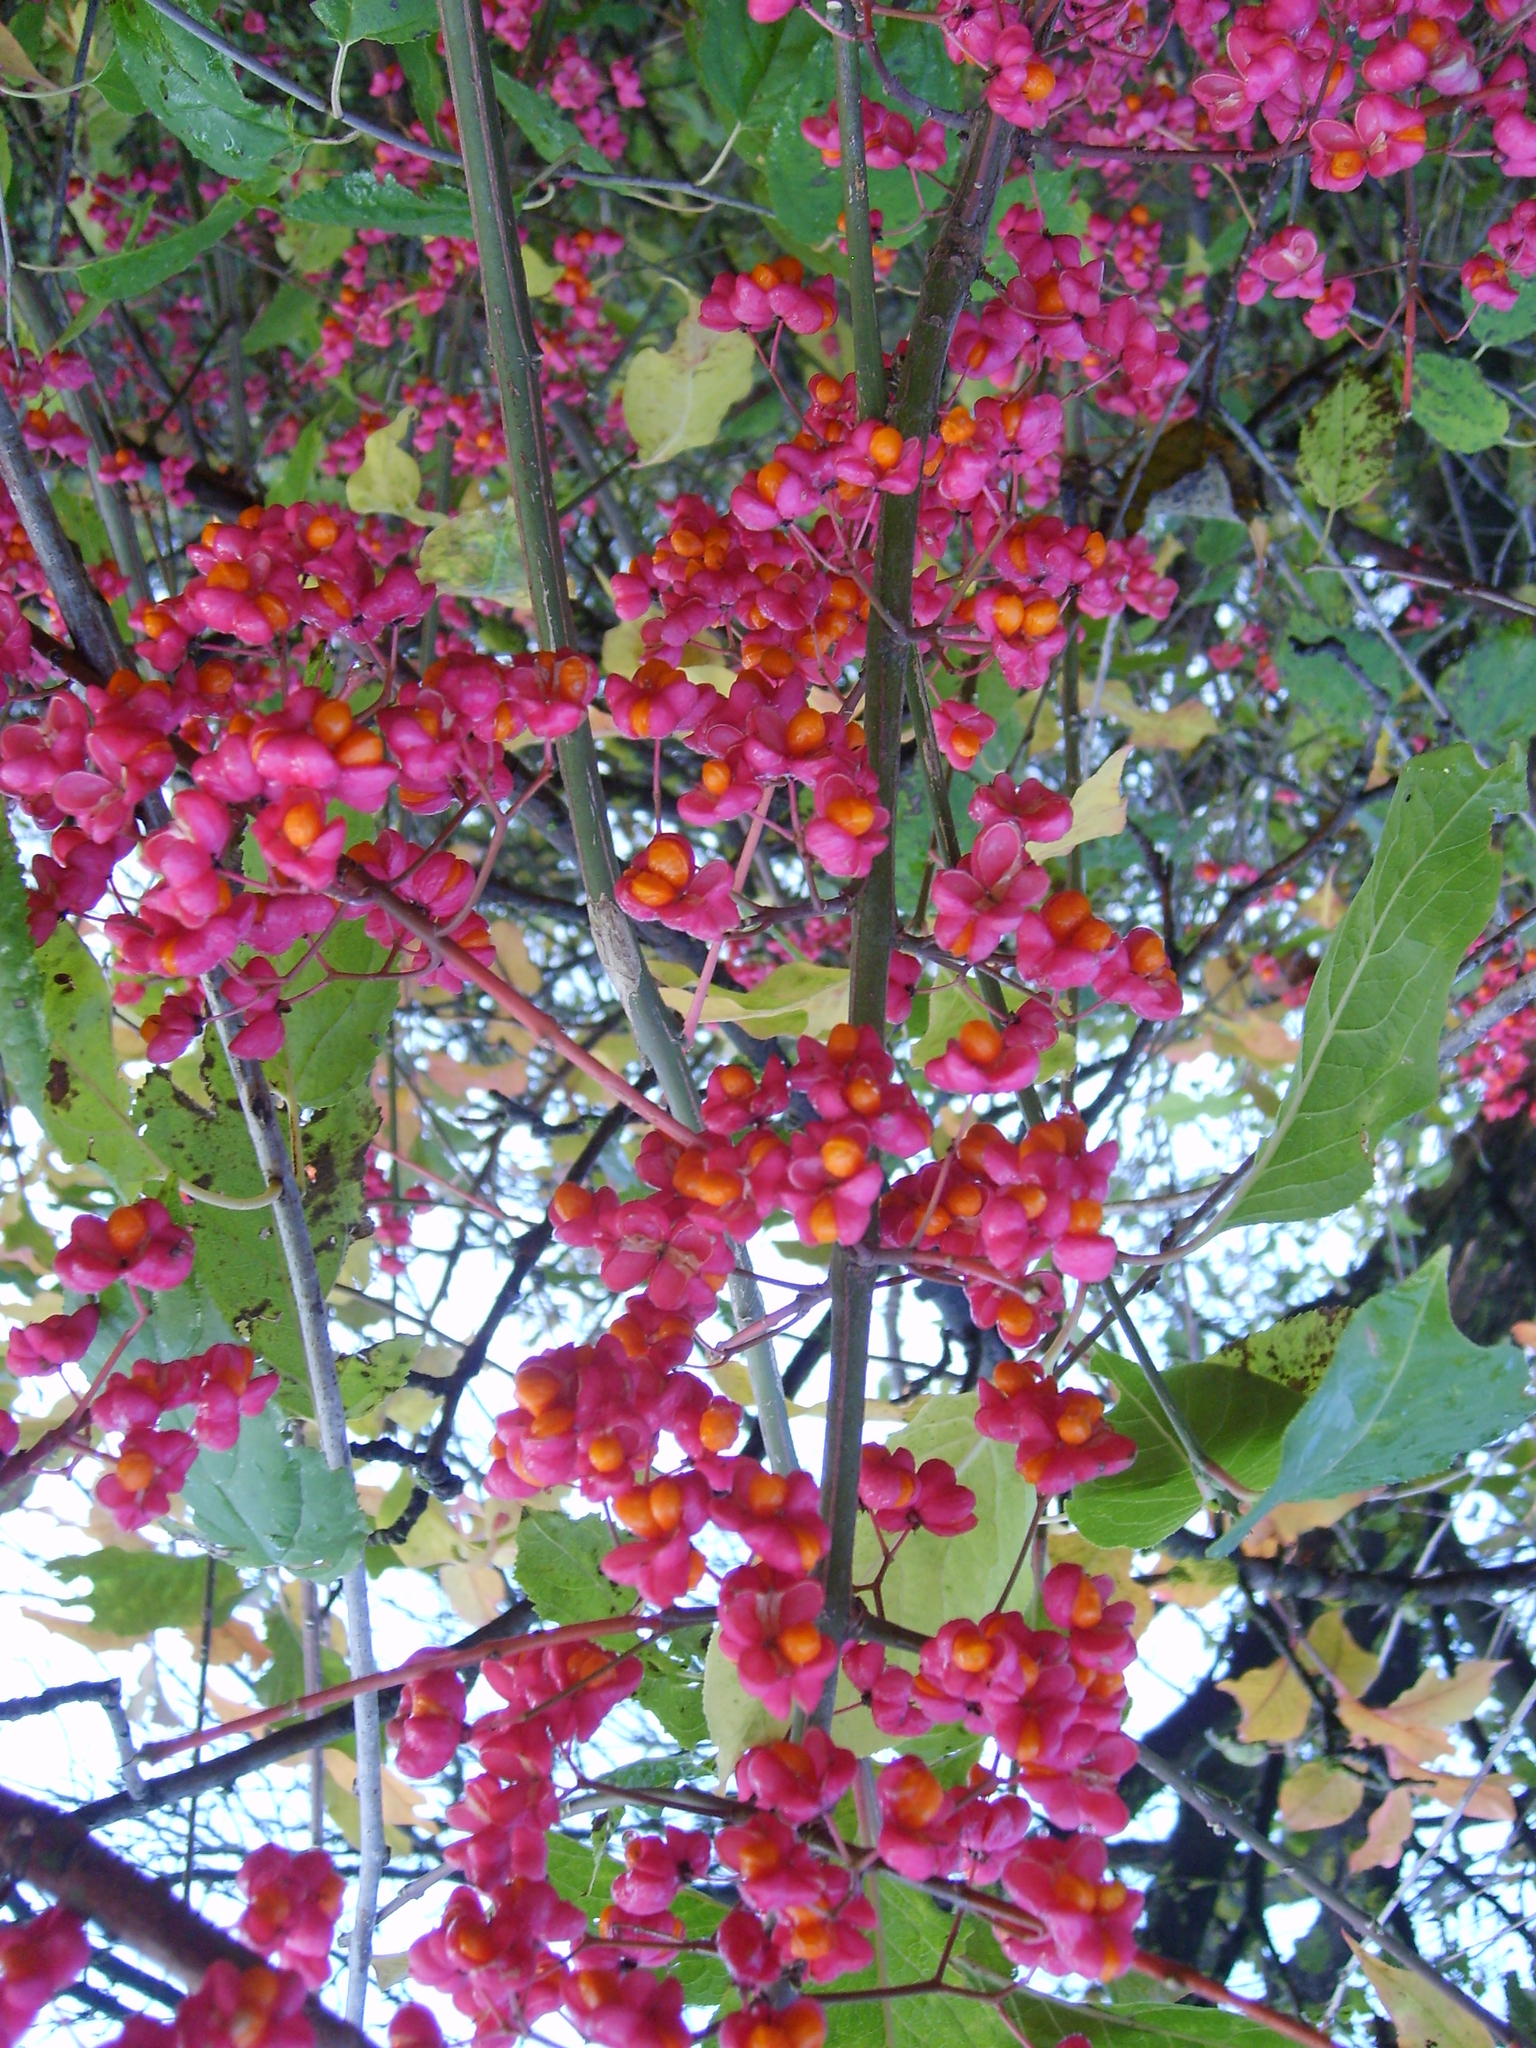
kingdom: Plantae
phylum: Tracheophyta
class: Magnoliopsida
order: Celastrales
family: Celastraceae
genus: Euonymus
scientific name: Euonymus europaeus
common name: Spindle
